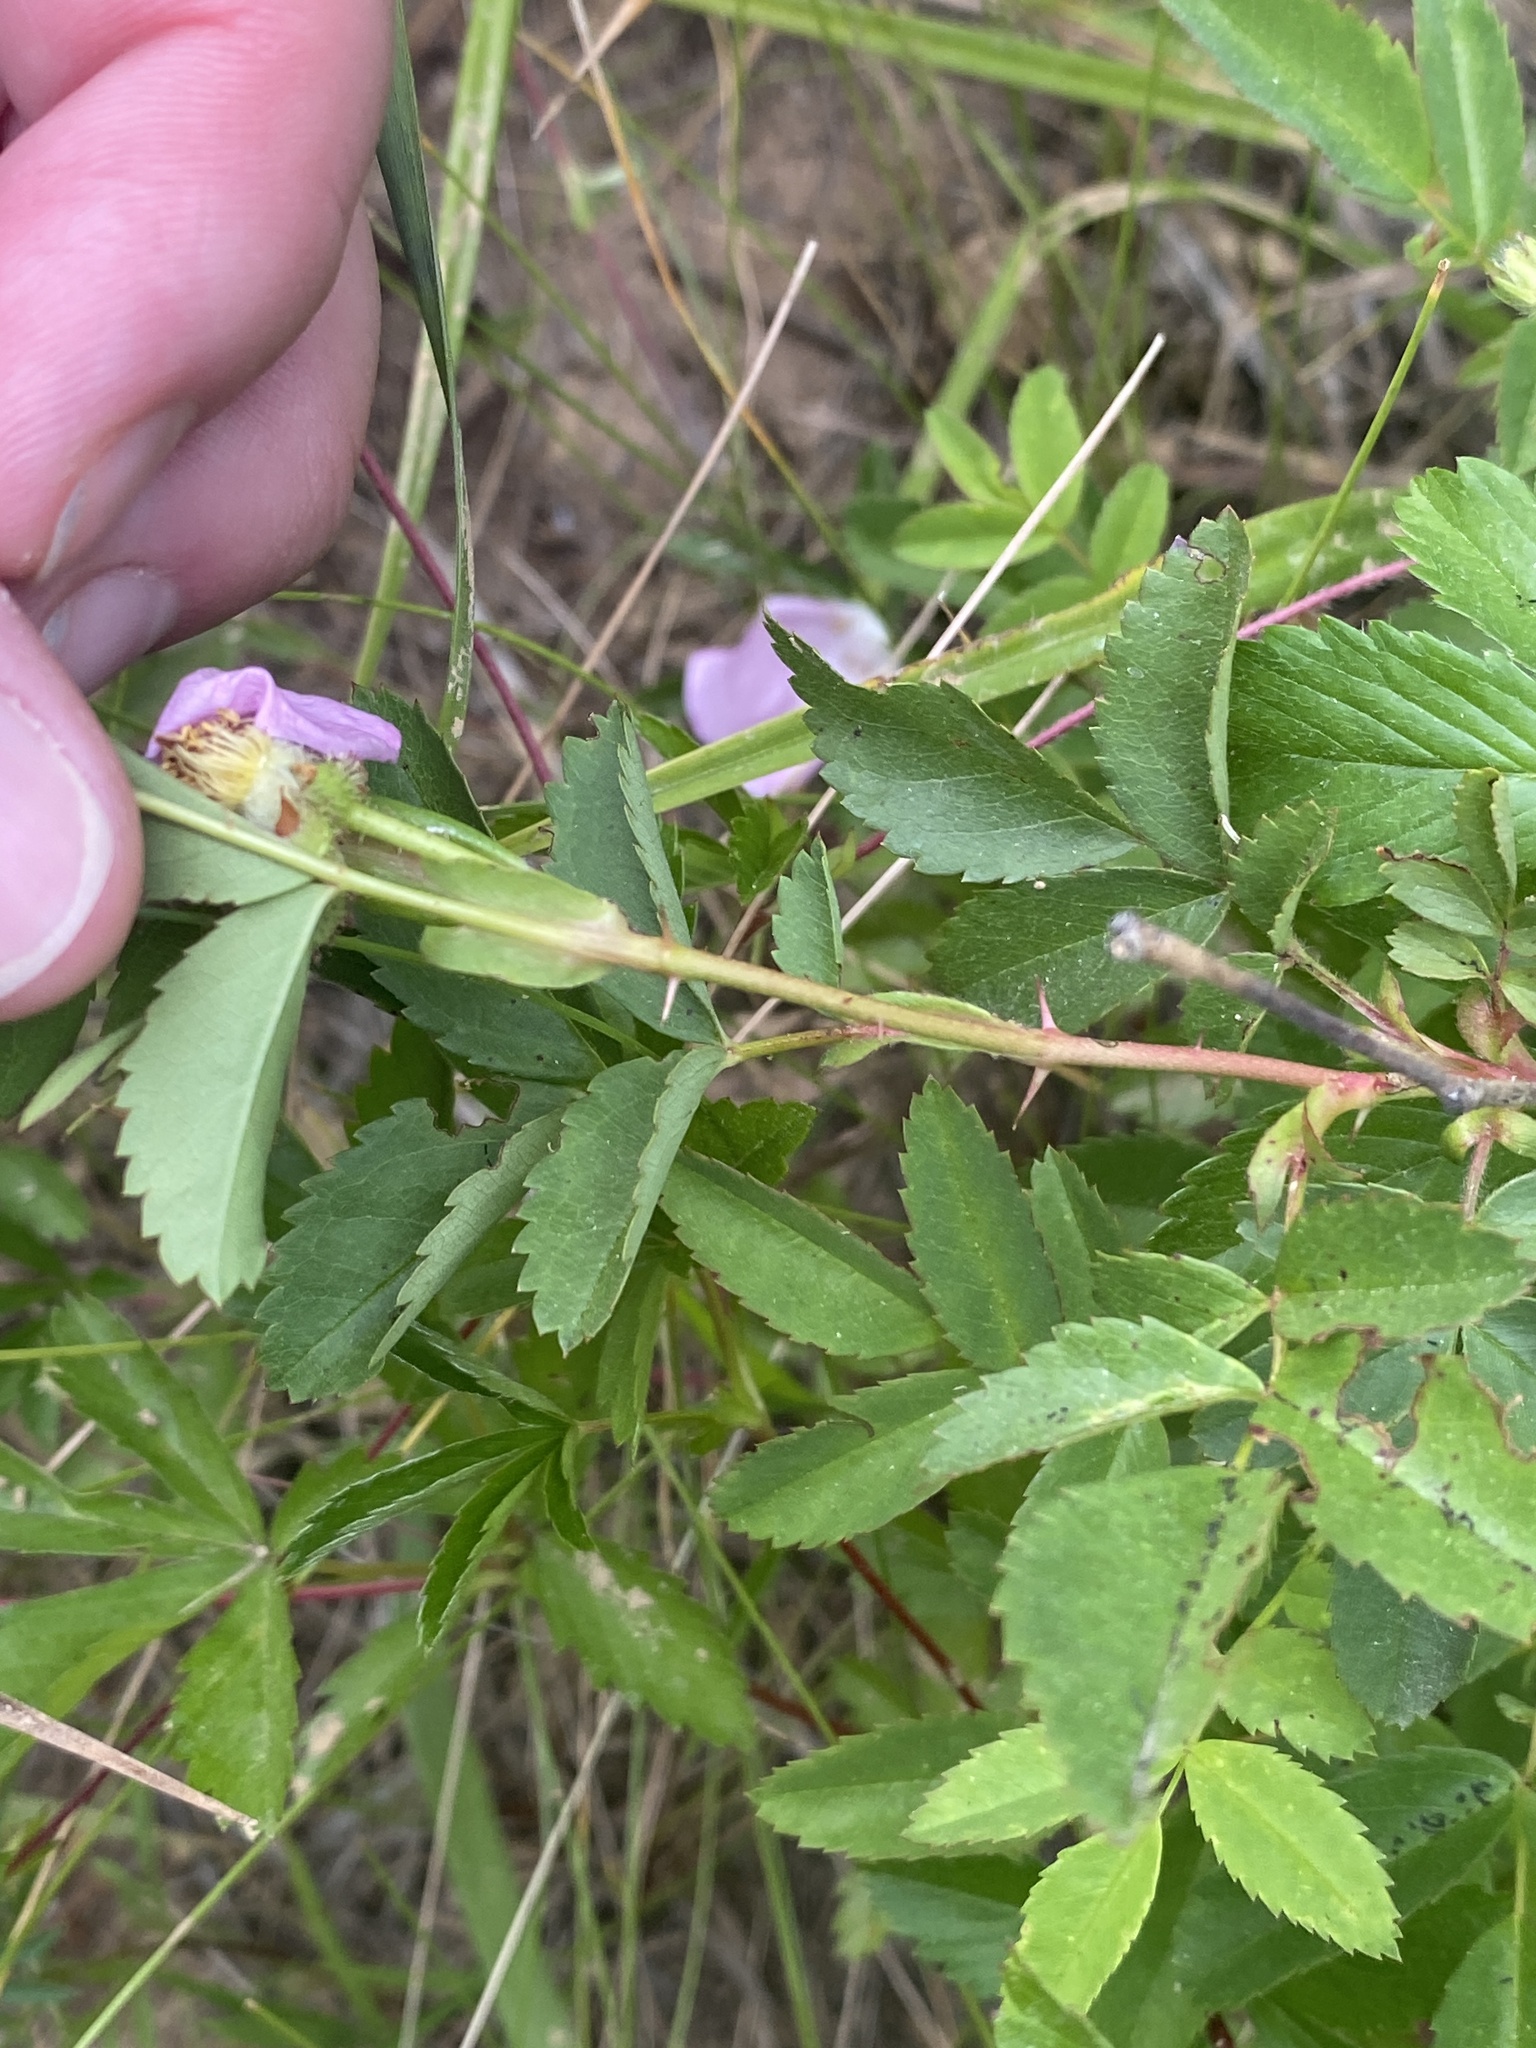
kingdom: Plantae
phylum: Tracheophyta
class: Magnoliopsida
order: Rosales
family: Rosaceae
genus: Rosa
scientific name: Rosa carolina
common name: Pasture rose
